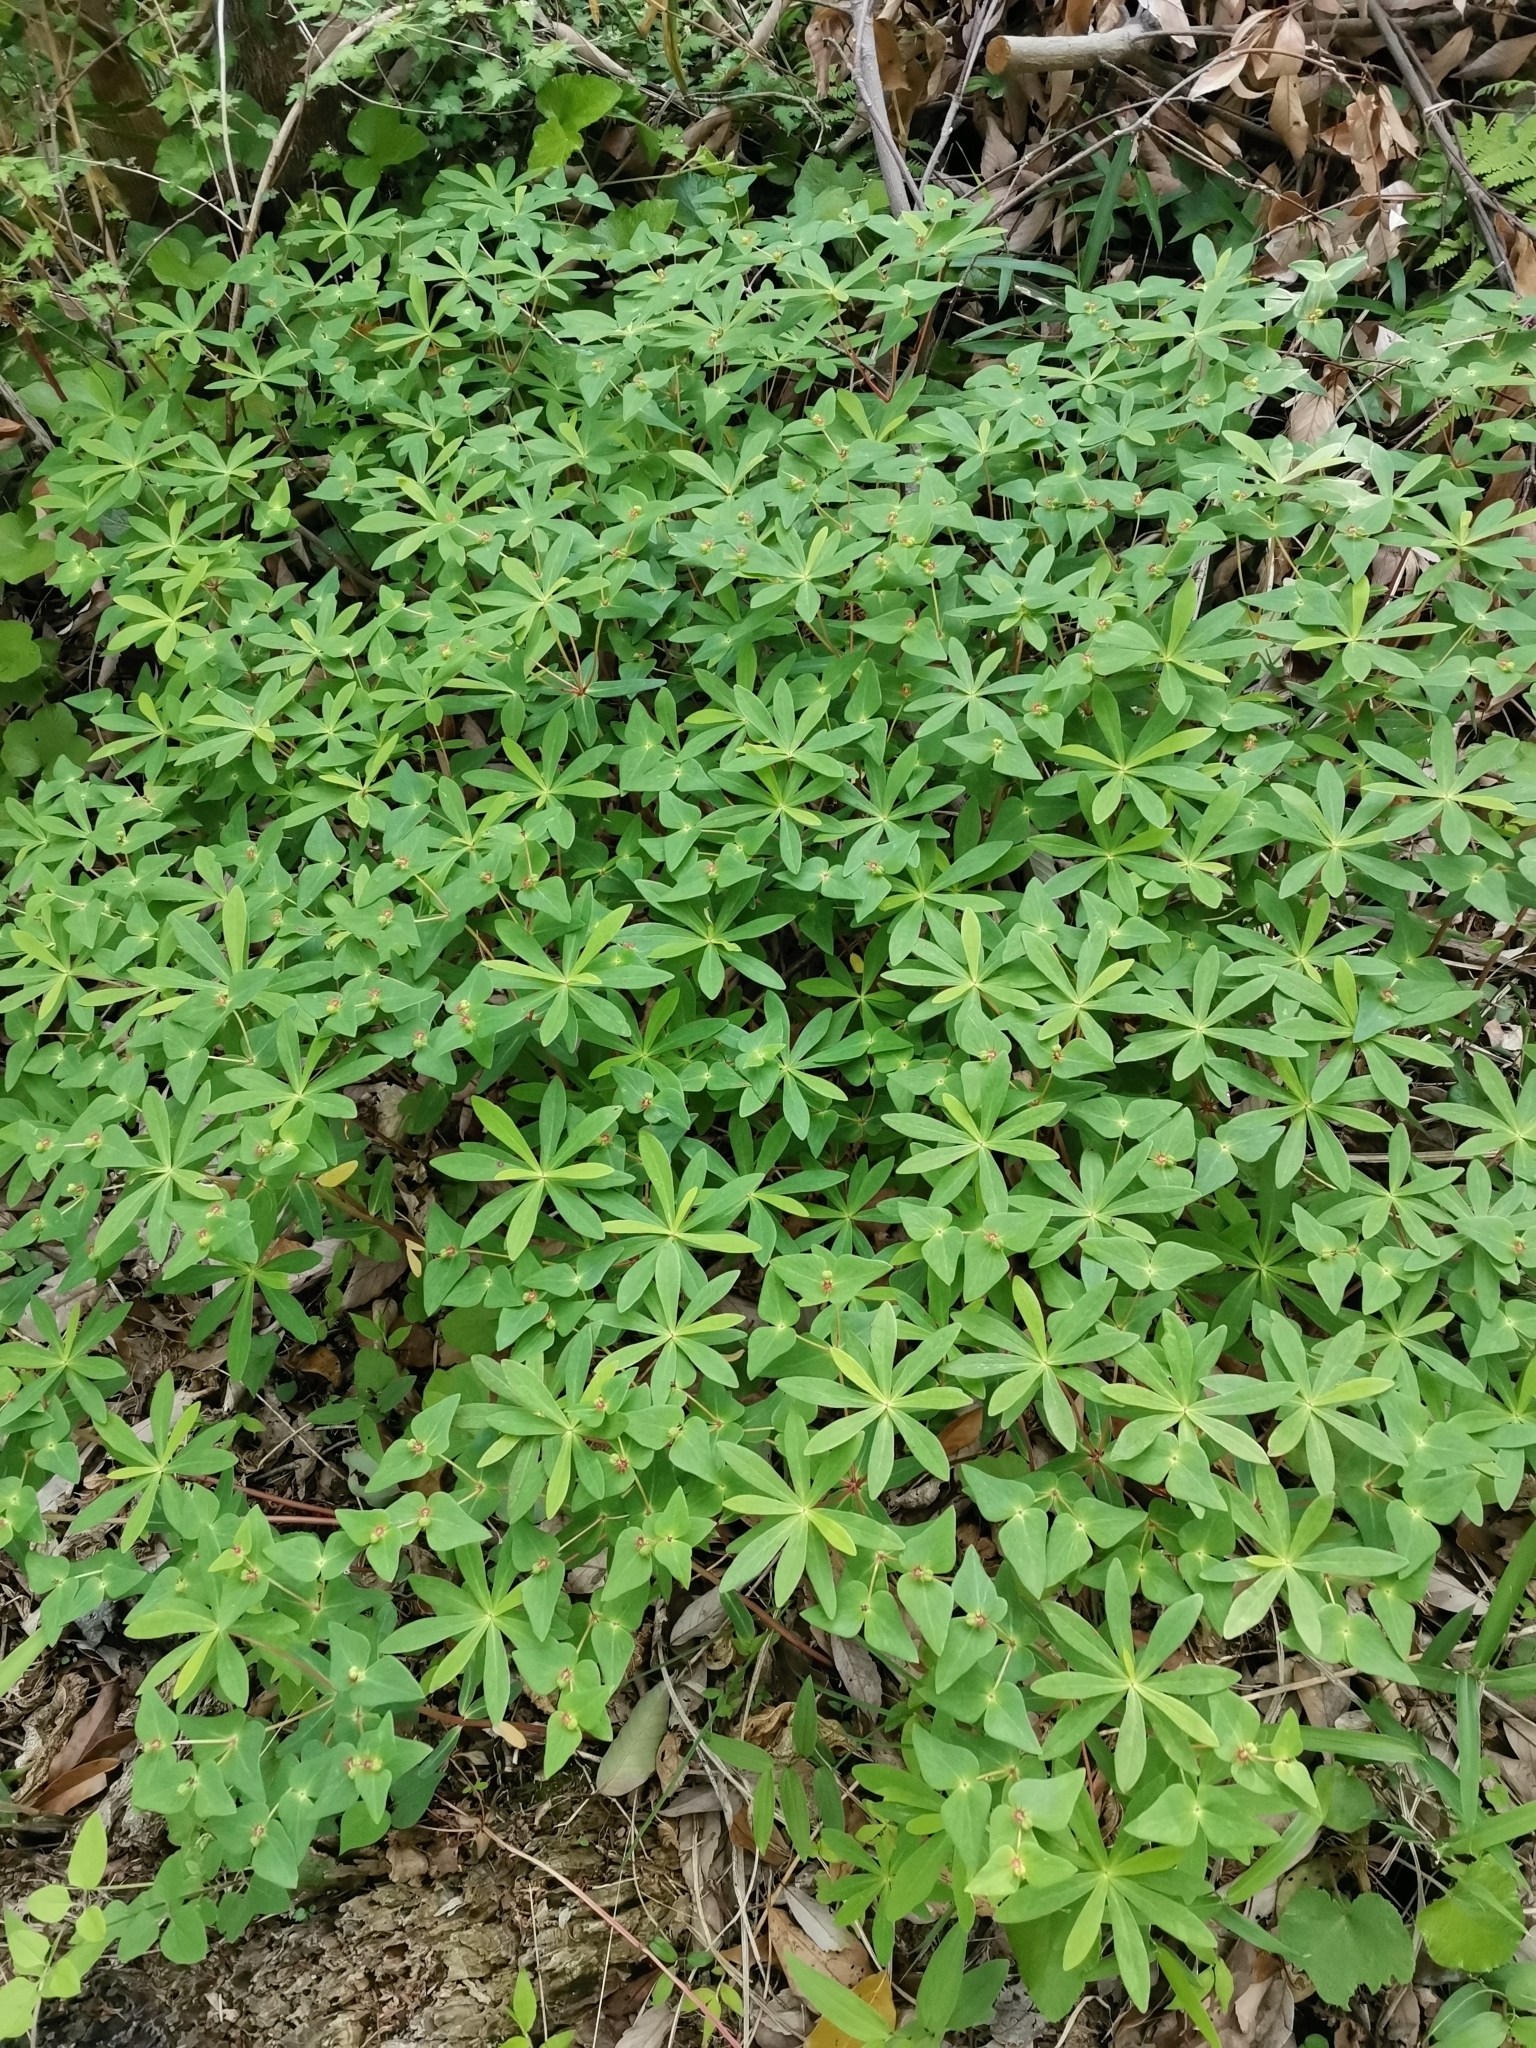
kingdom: Plantae
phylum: Tracheophyta
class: Magnoliopsida
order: Malpighiales
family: Euphorbiaceae
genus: Euphorbia
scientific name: Euphorbia sieboldiana
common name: Siebold's spurge
